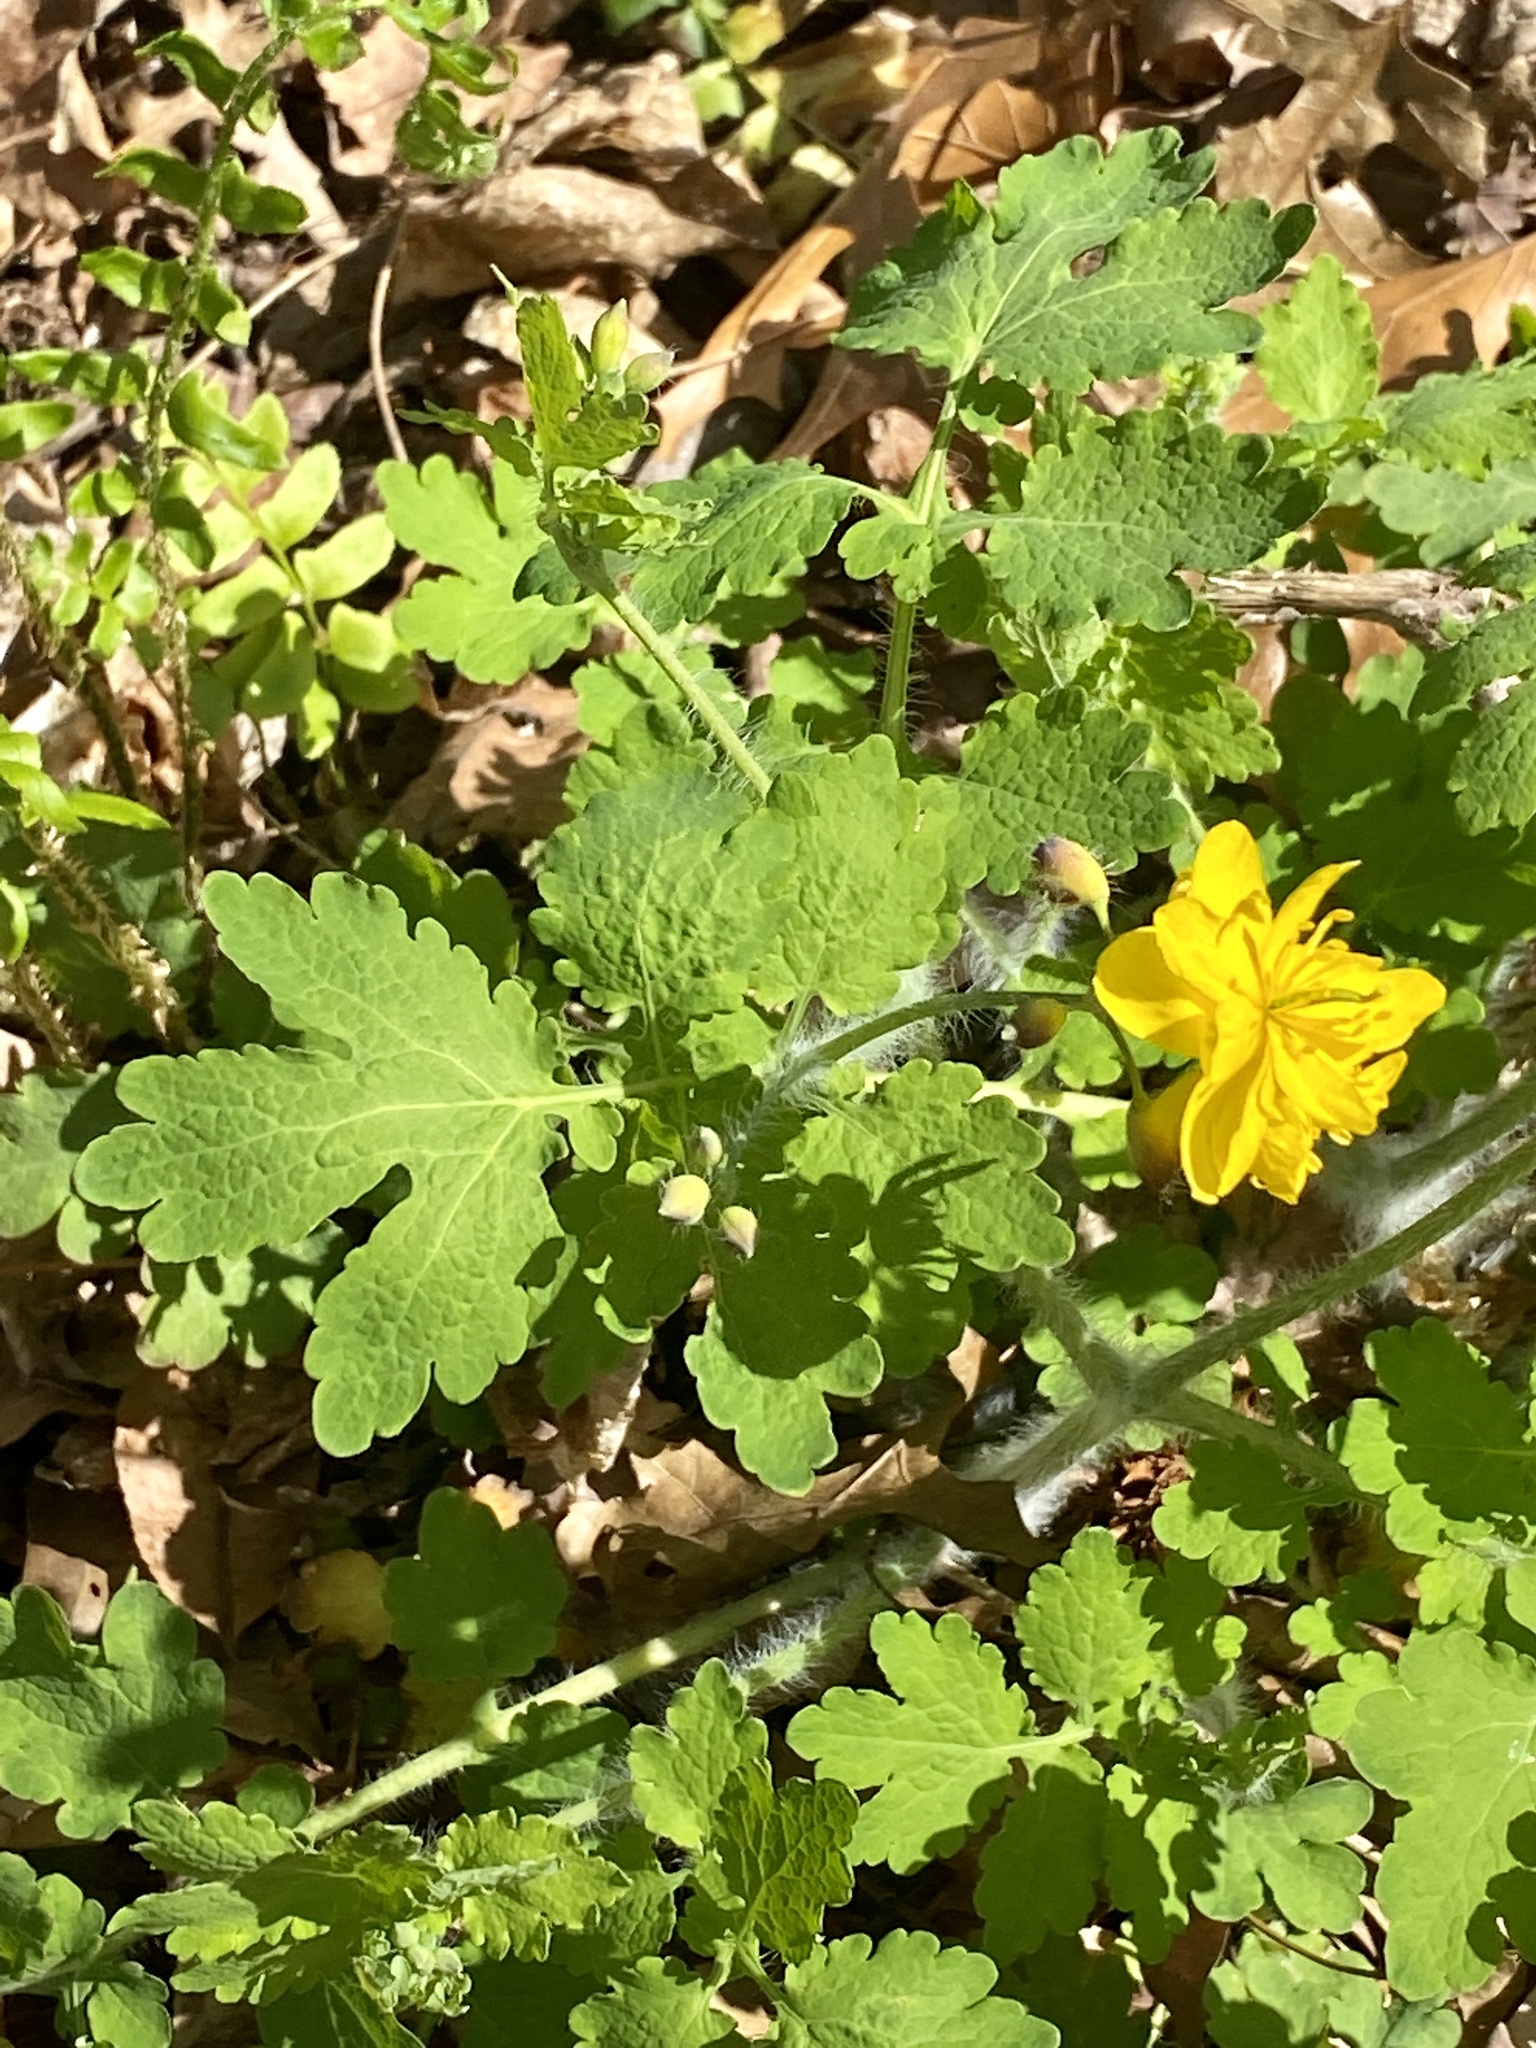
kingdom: Plantae
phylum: Tracheophyta
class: Magnoliopsida
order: Ranunculales
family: Papaveraceae
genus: Chelidonium
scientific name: Chelidonium majus
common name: Greater celandine
